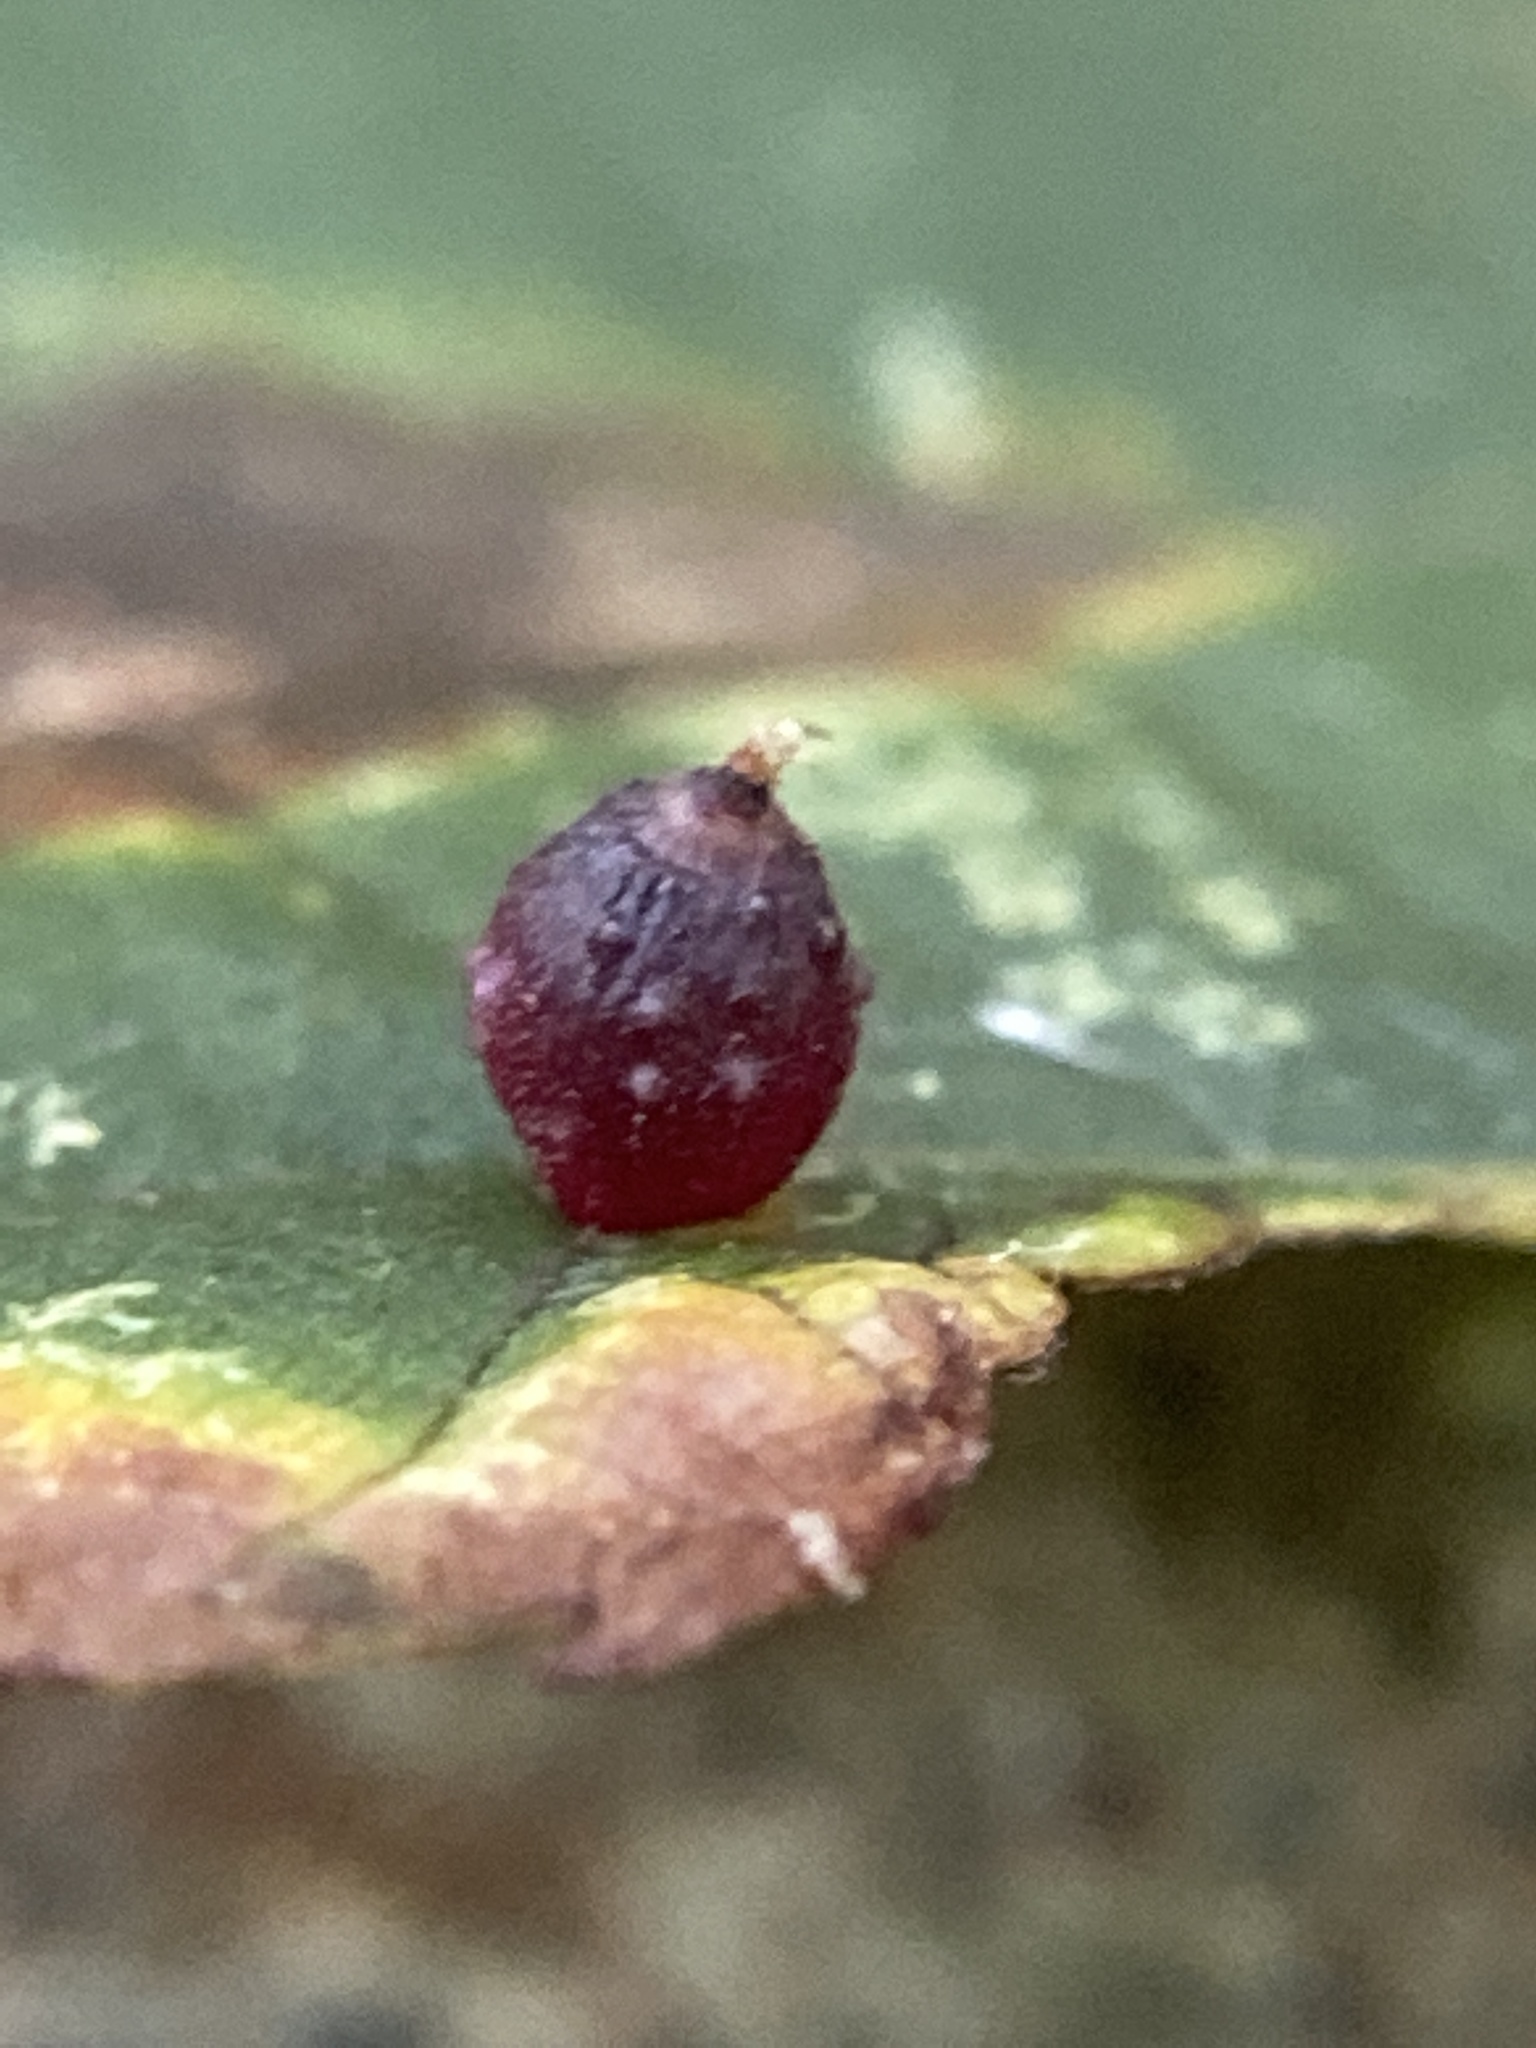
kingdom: Animalia
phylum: Arthropoda
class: Insecta
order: Diptera
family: Cecidomyiidae
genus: Caryomyia
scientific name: Caryomyia viscidolium
